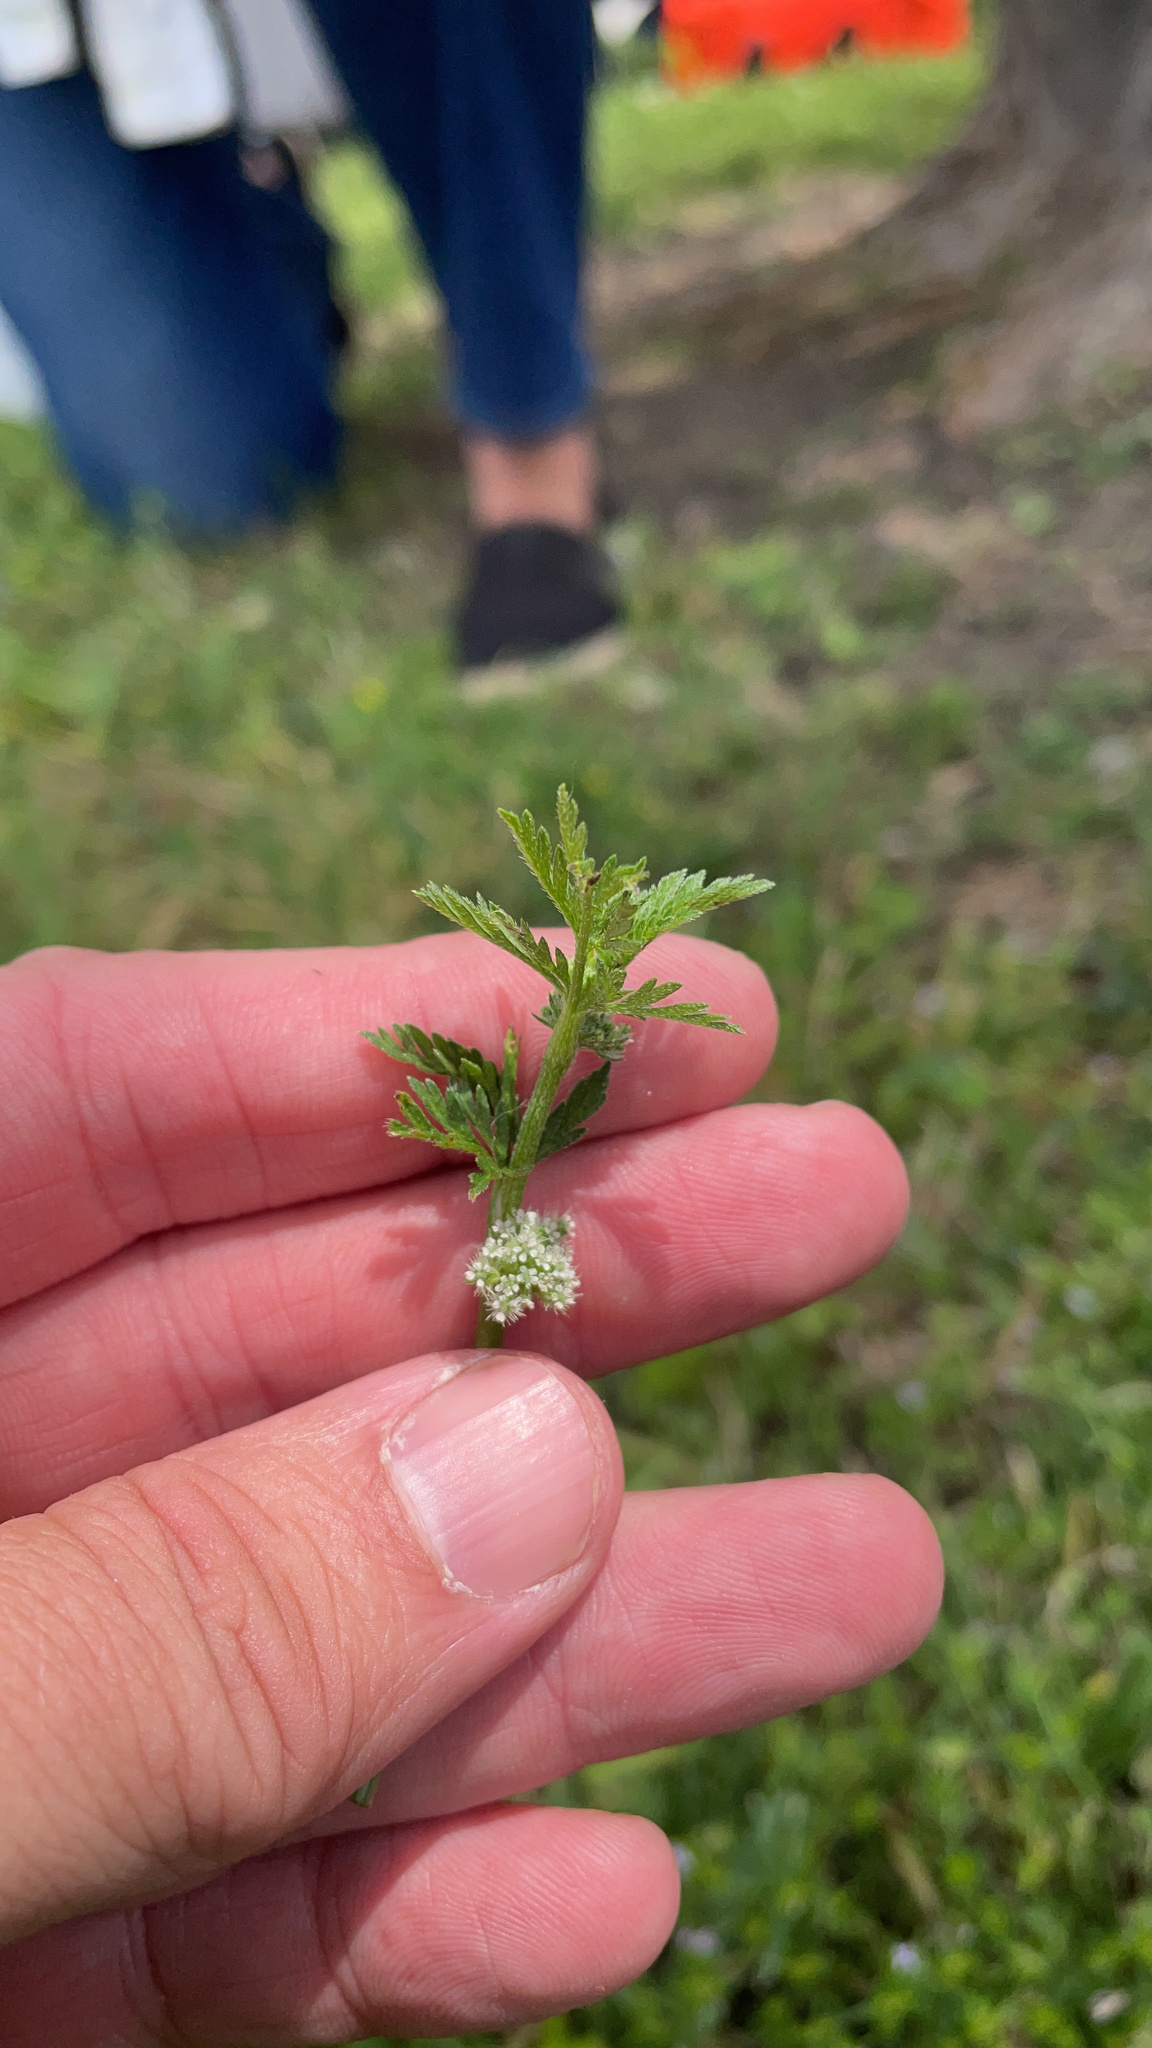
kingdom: Plantae
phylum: Tracheophyta
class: Magnoliopsida
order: Apiales
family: Apiaceae
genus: Torilis
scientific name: Torilis nodosa
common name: Knotted hedge-parsley
